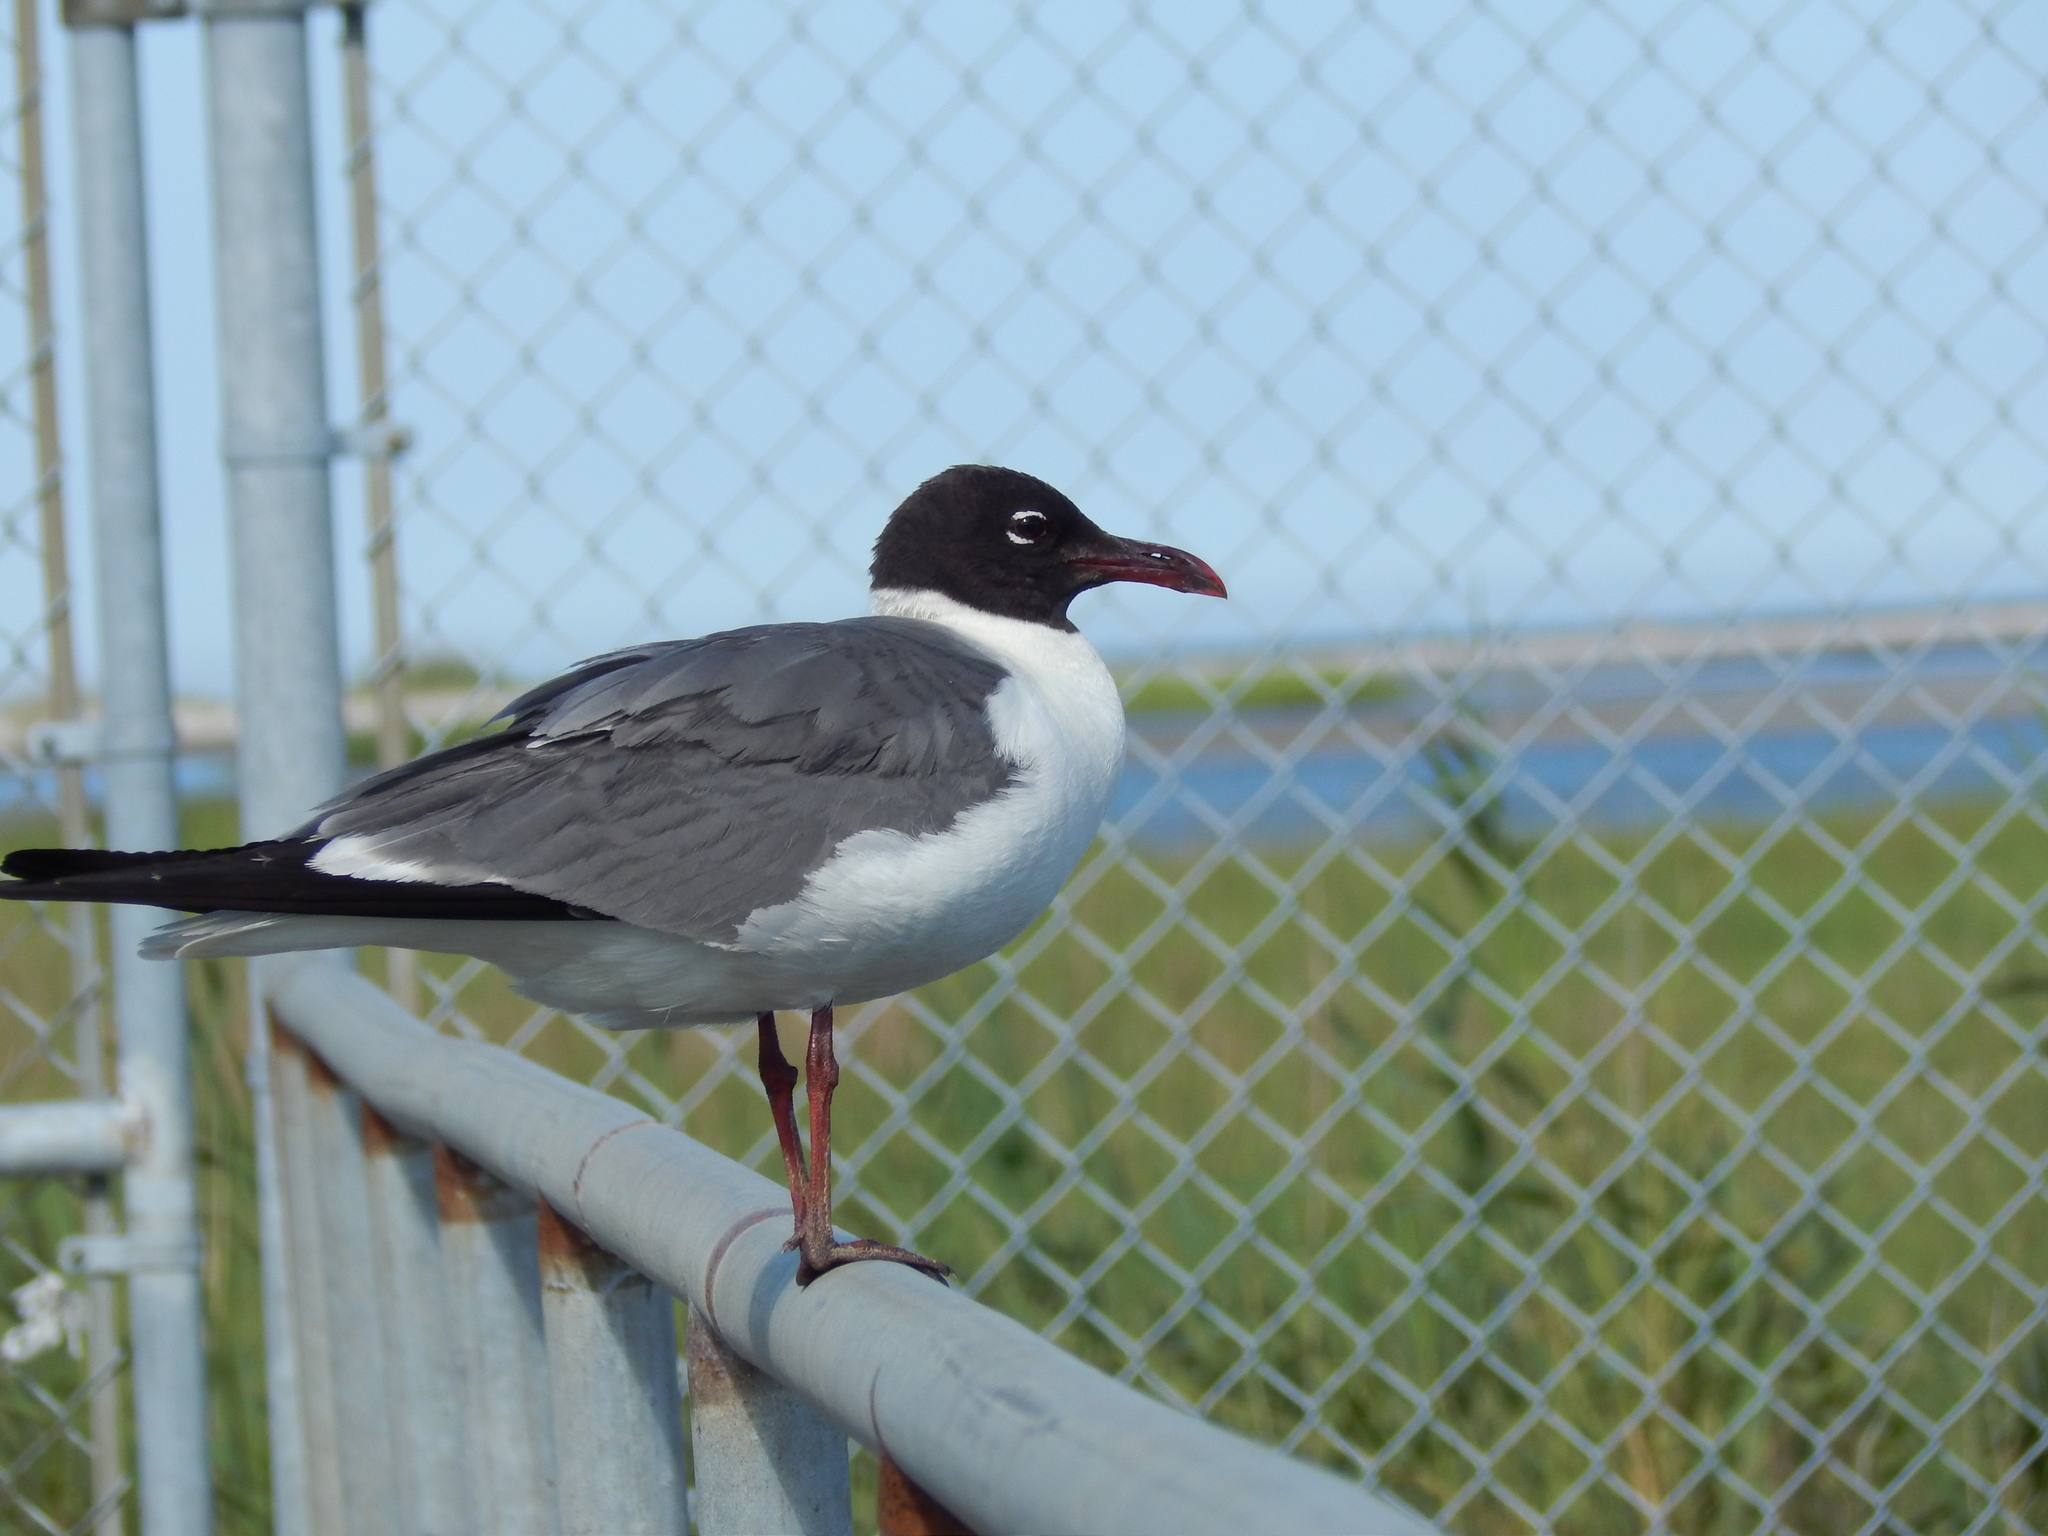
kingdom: Animalia
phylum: Chordata
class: Aves
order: Charadriiformes
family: Laridae
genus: Leucophaeus
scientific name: Leucophaeus atricilla
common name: Laughing gull
